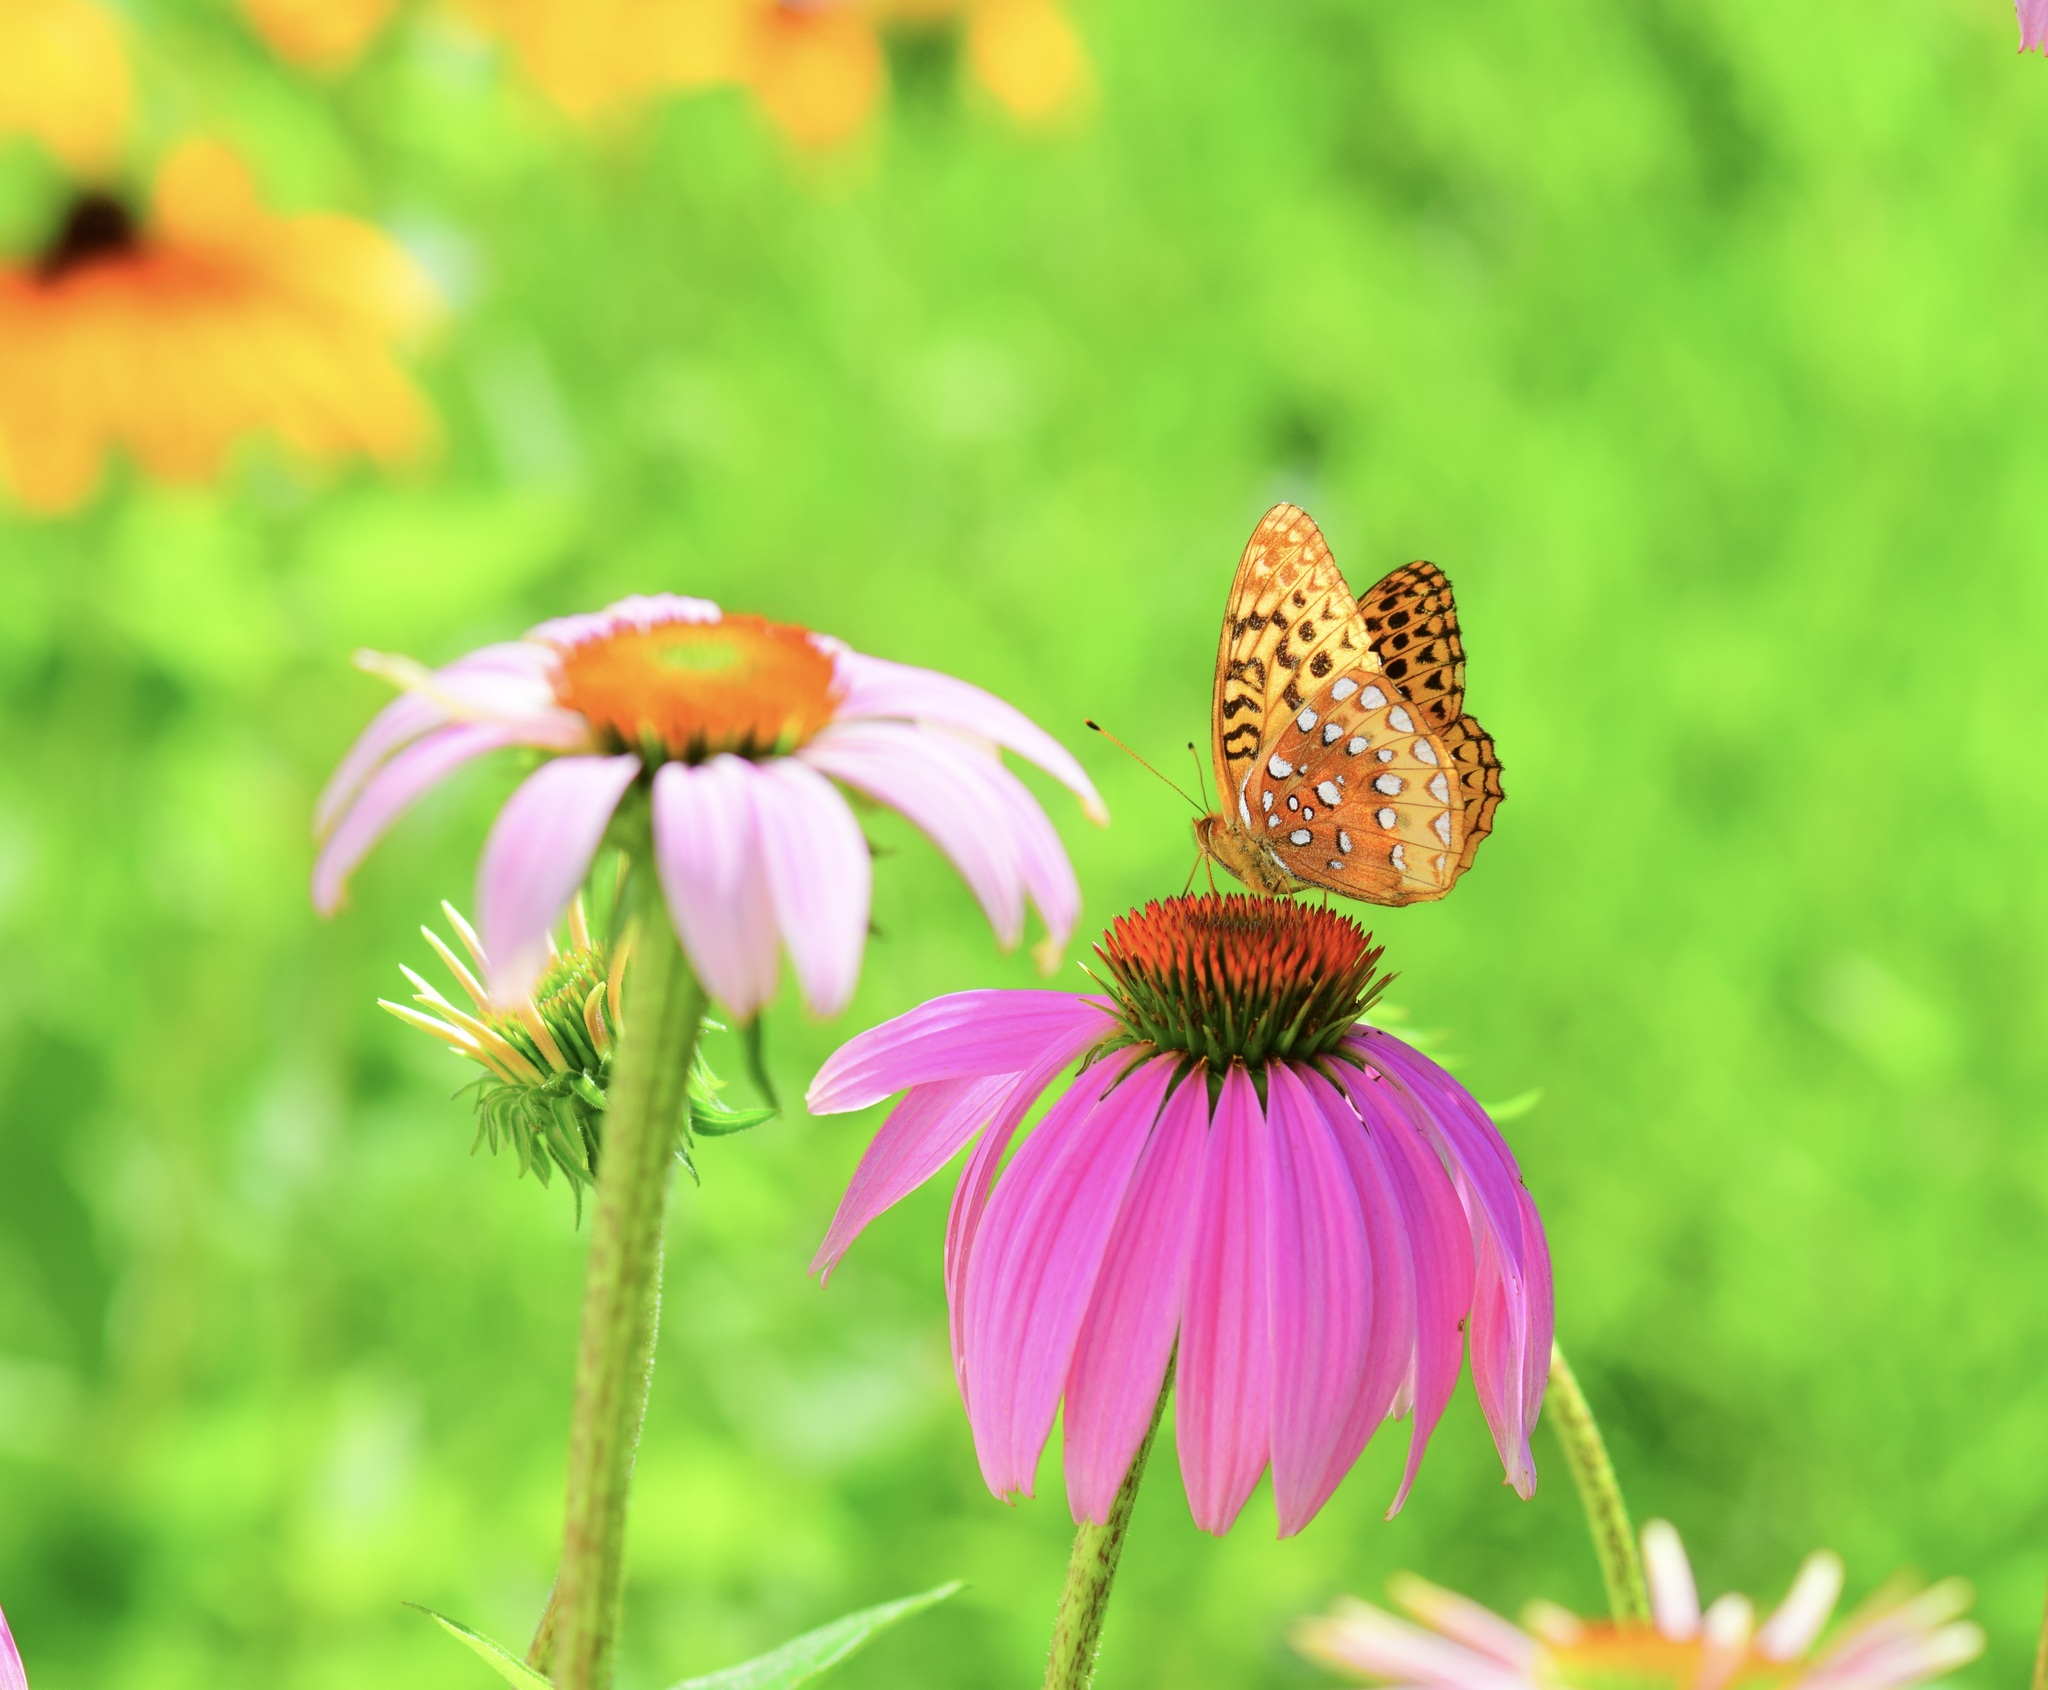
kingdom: Animalia
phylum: Arthropoda
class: Insecta
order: Lepidoptera
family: Nymphalidae
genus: Speyeria
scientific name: Speyeria cybele
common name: Great spangled fritillary
